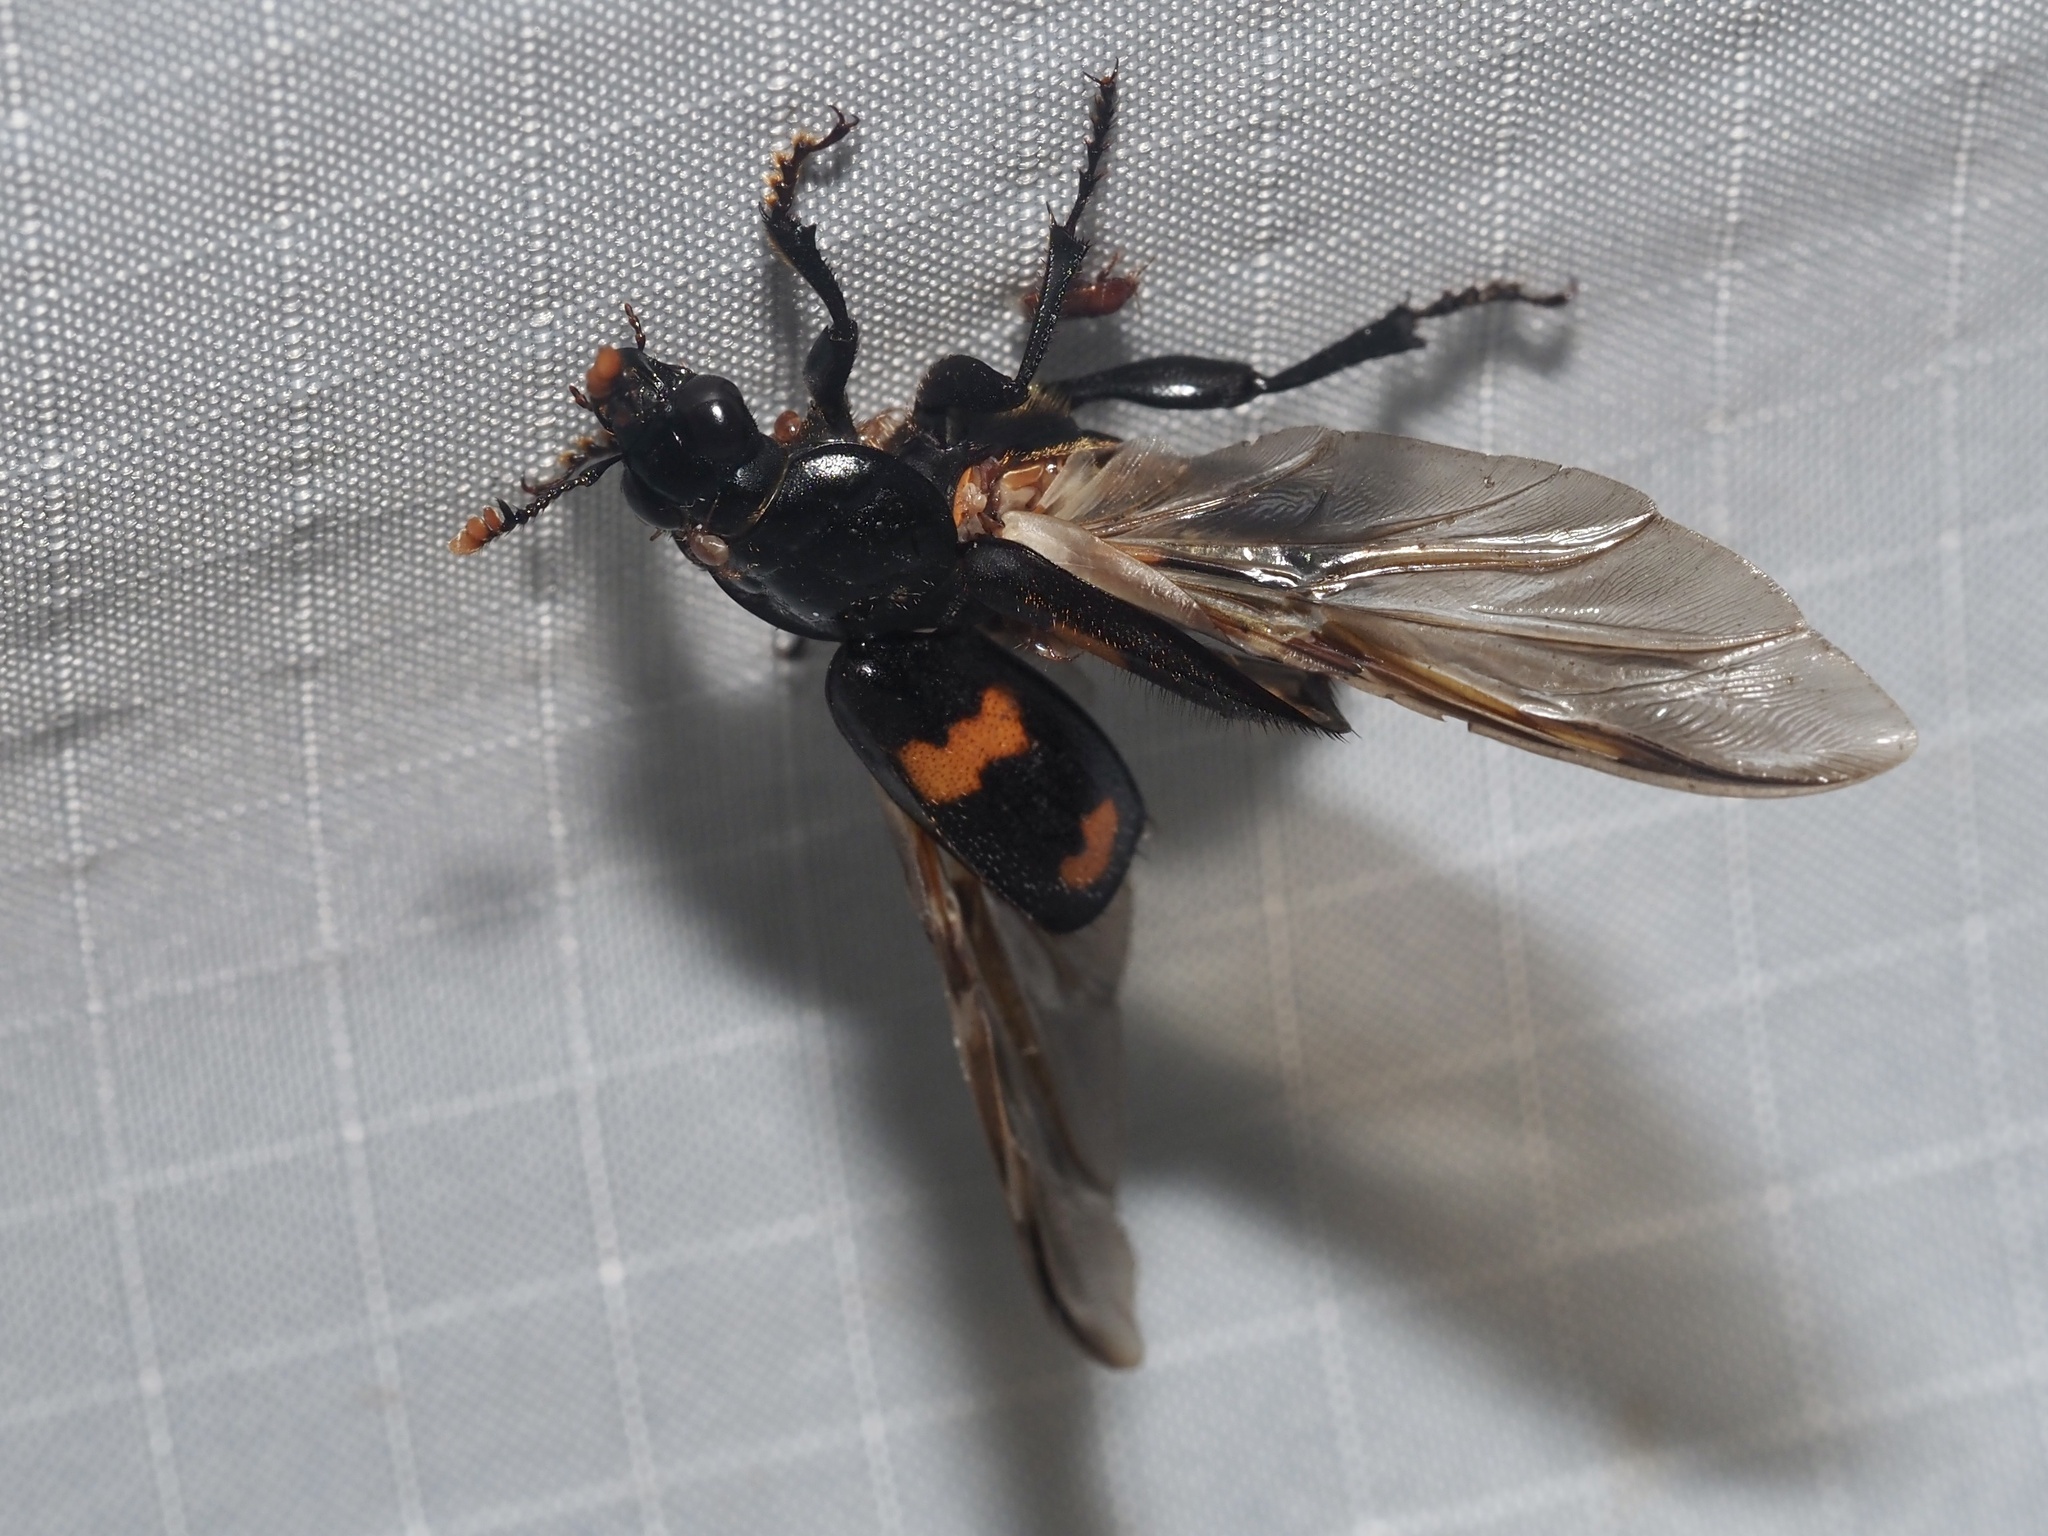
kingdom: Animalia
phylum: Arthropoda
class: Insecta
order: Coleoptera
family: Staphylinidae
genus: Nicrophorus
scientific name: Nicrophorus orbicollis
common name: Roundneck sexton beetle
